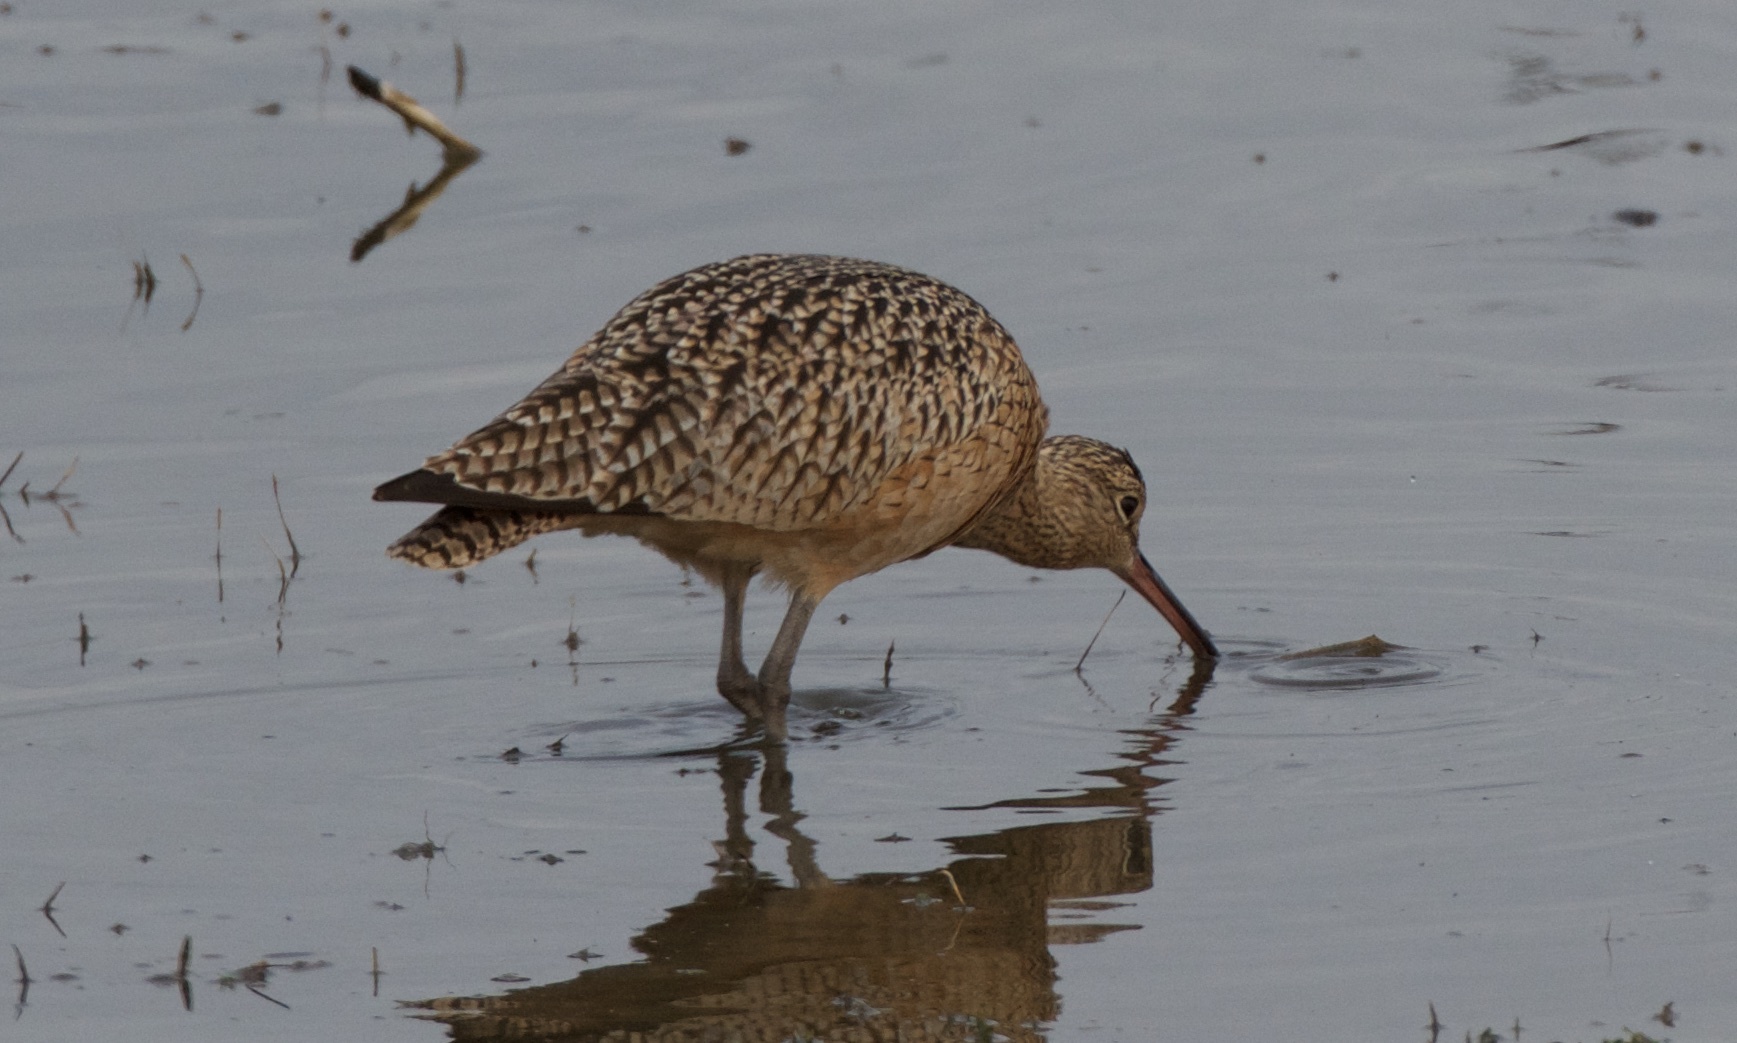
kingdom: Animalia
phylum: Chordata
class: Aves
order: Charadriiformes
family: Scolopacidae
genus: Numenius
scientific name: Numenius americanus
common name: Long-billed curlew
